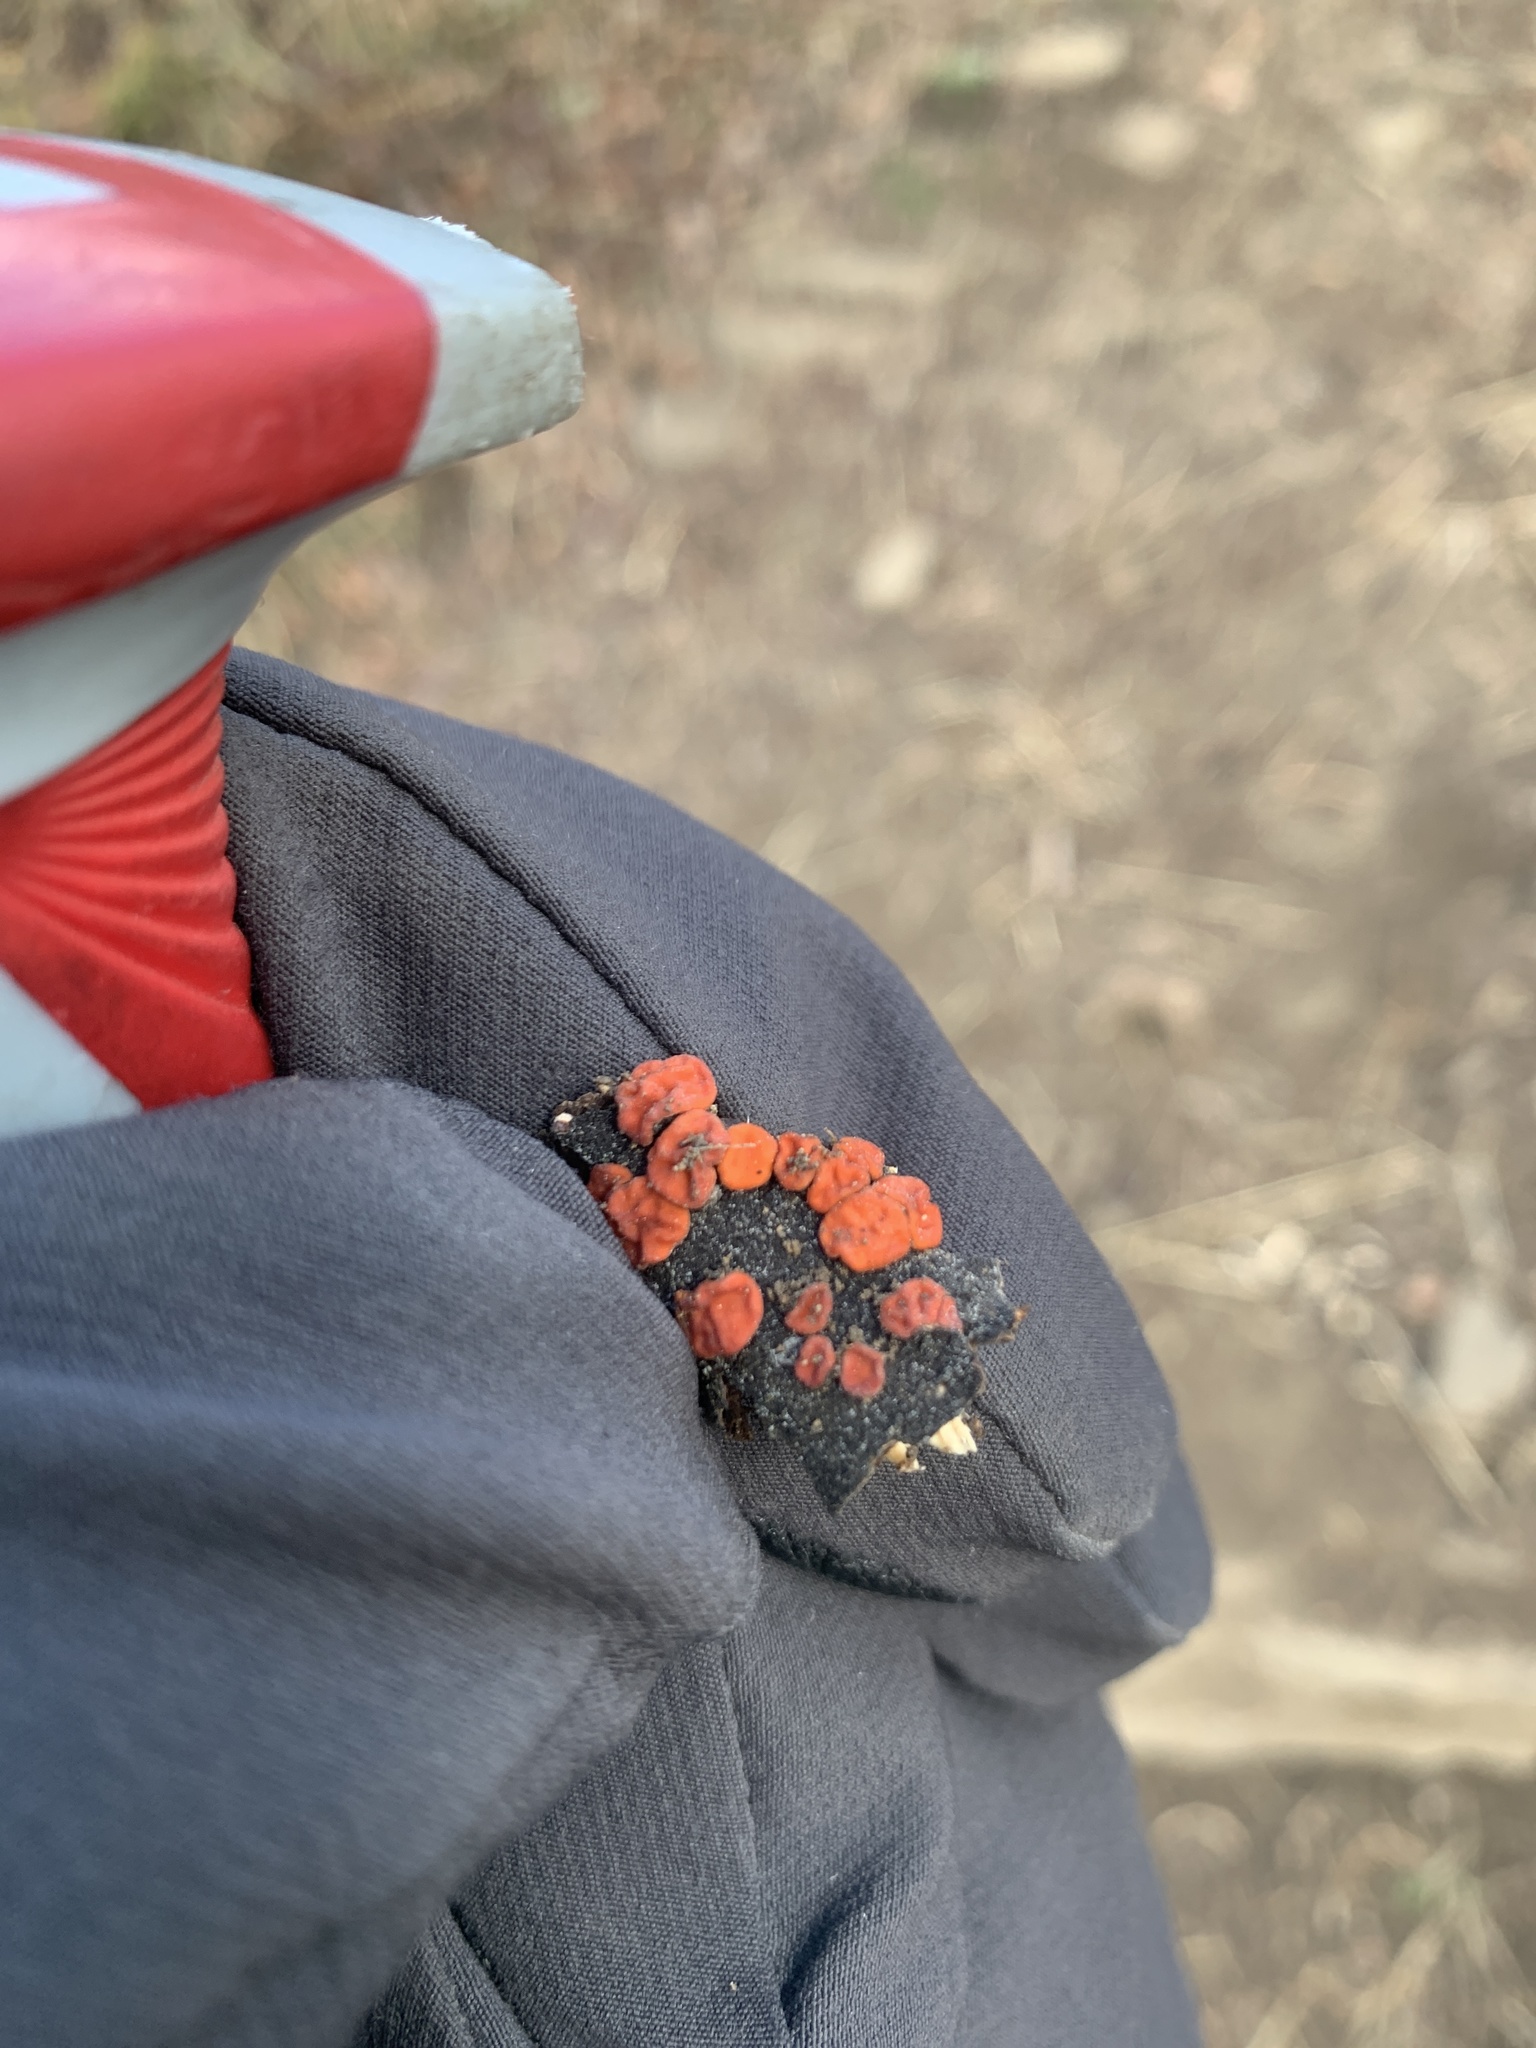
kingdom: Fungi
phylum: Basidiomycota
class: Agaricomycetes
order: Russulales
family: Peniophoraceae
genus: Peniophora
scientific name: Peniophora rufa
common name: Red tree brain fungus
